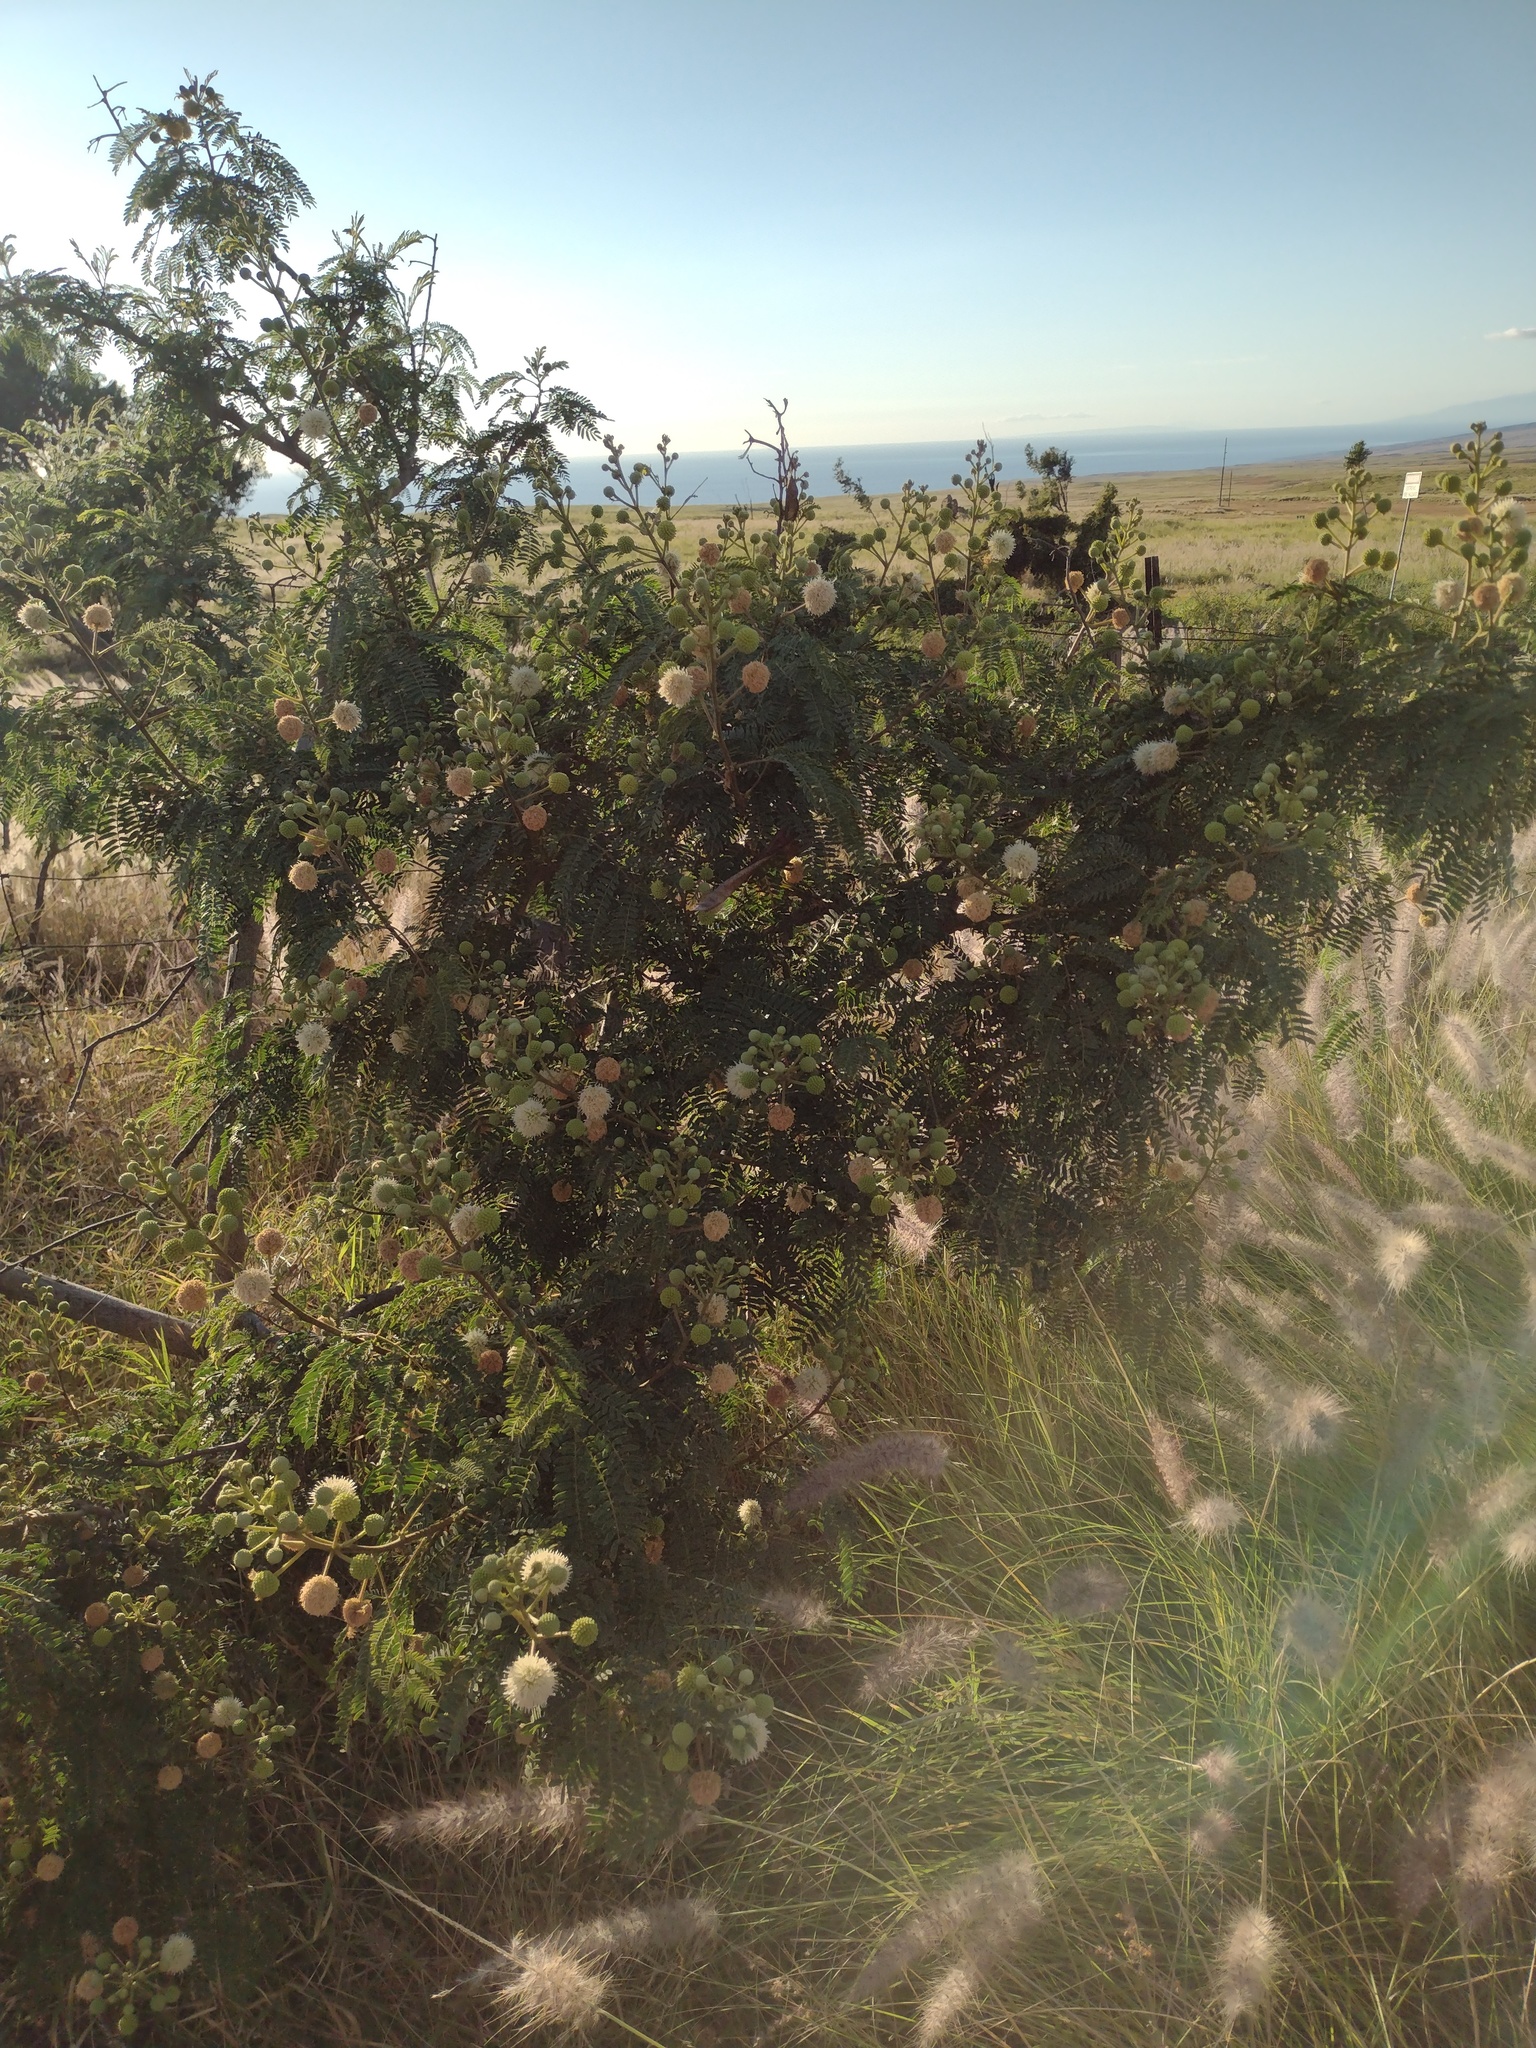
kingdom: Plantae
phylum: Tracheophyta
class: Magnoliopsida
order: Fabales
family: Fabaceae
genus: Leucaena
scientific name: Leucaena leucocephala
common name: White leadtree
